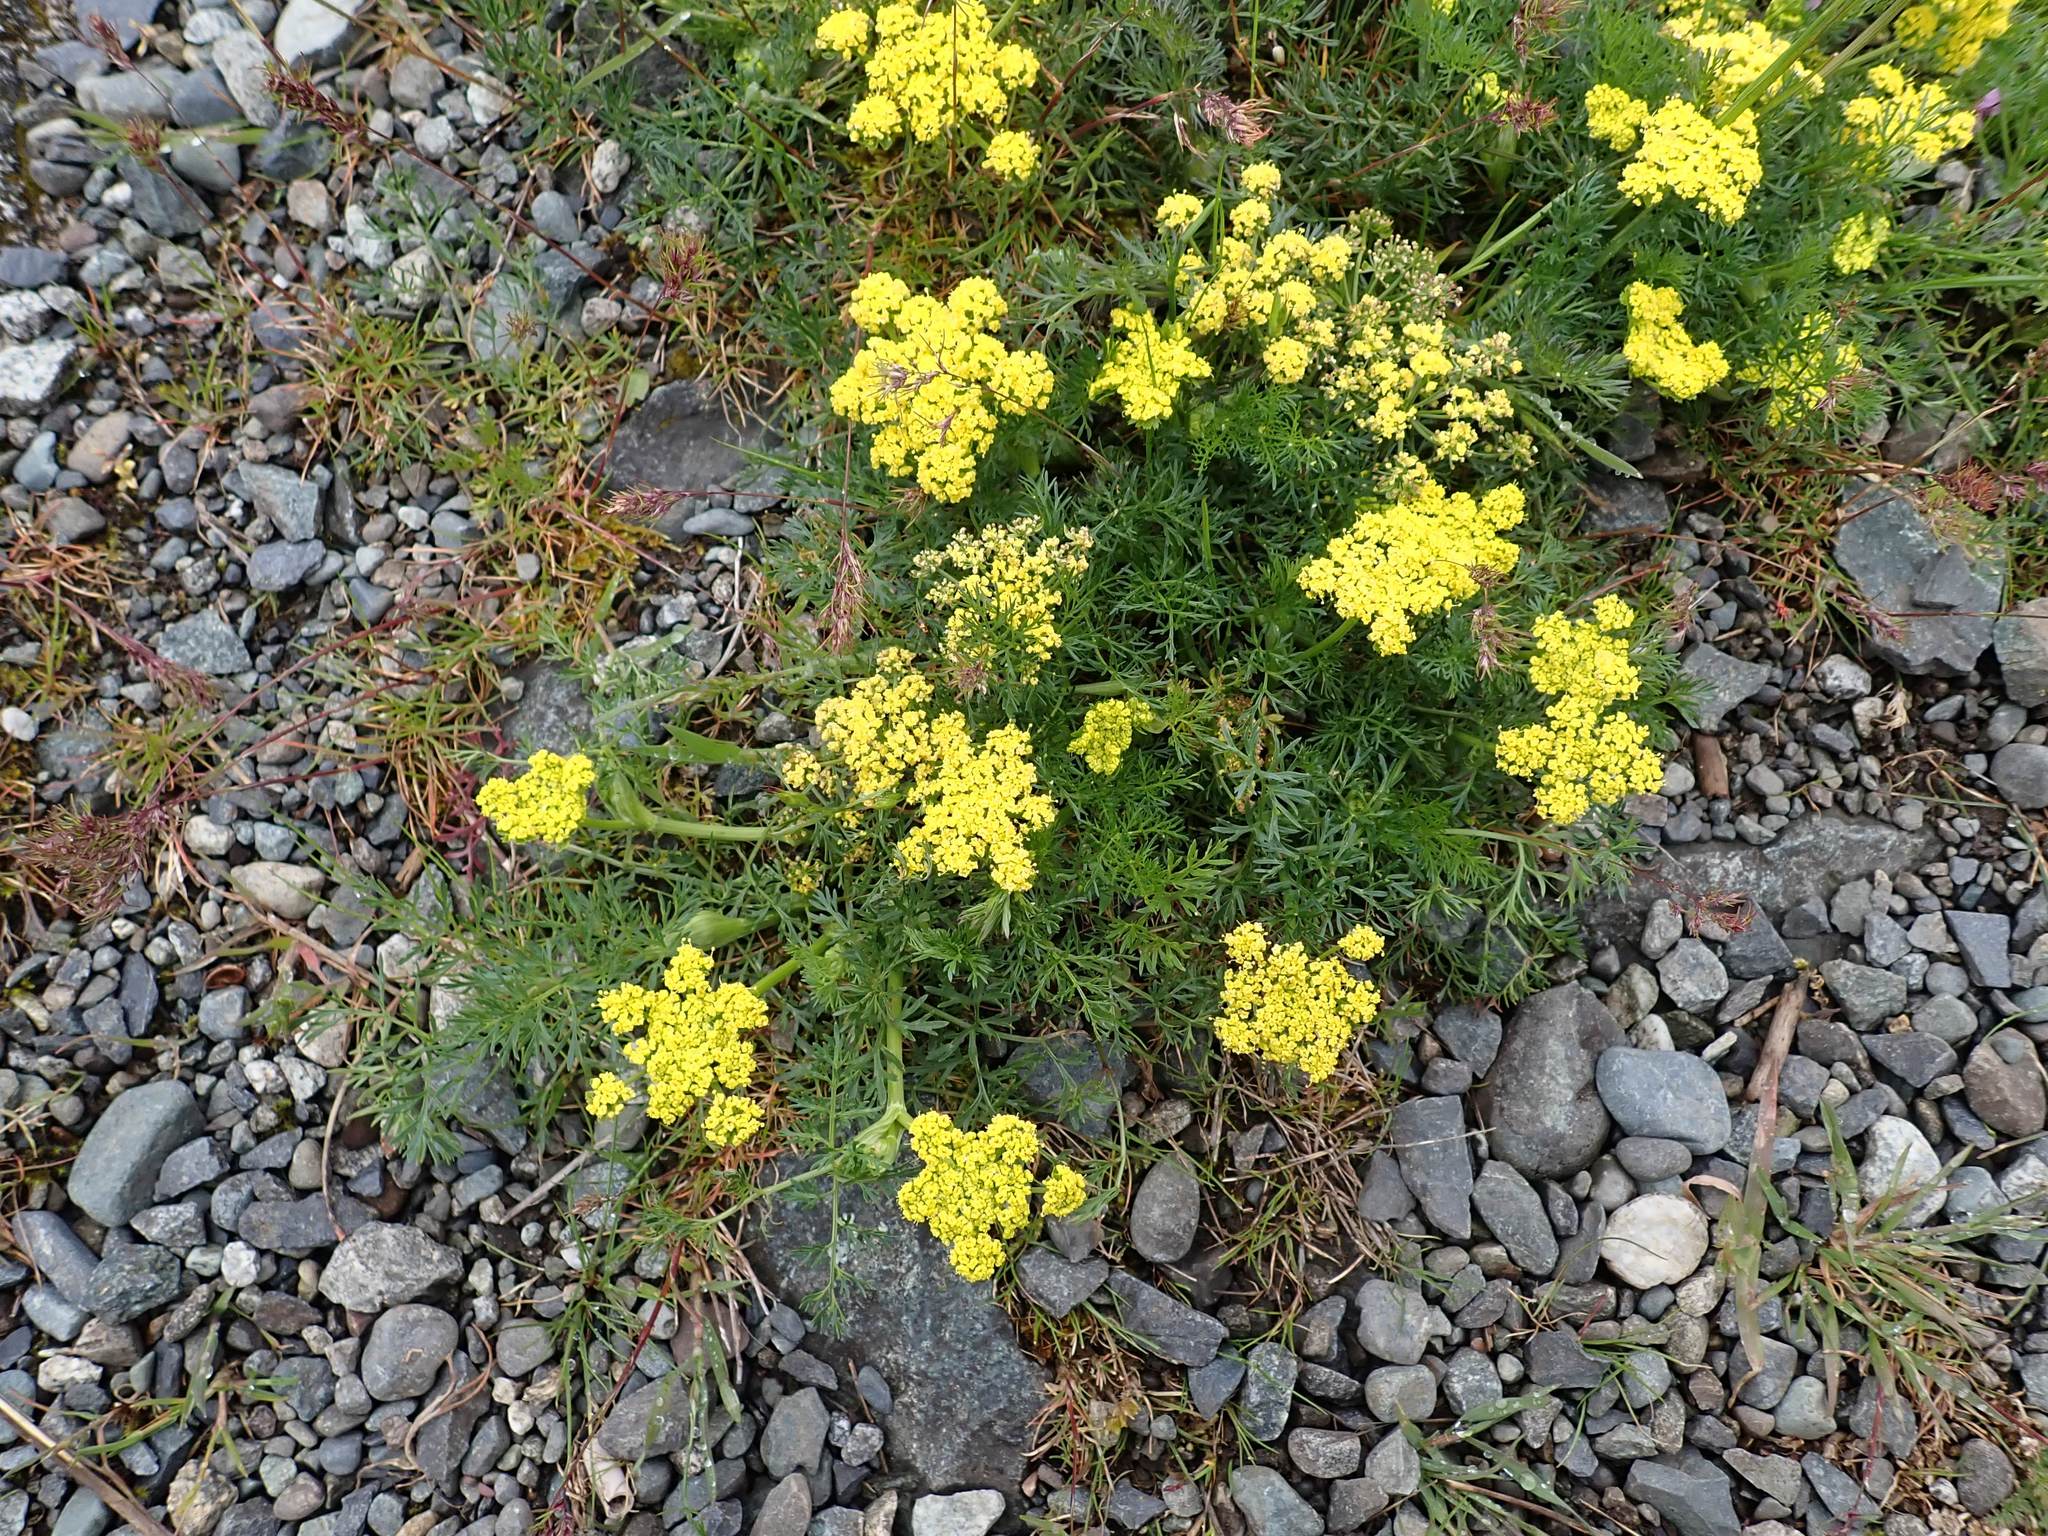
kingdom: Plantae
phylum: Tracheophyta
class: Magnoliopsida
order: Apiales
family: Apiaceae
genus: Lomatium
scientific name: Lomatium utriculatum
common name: Fine-leaf desert-parsley
